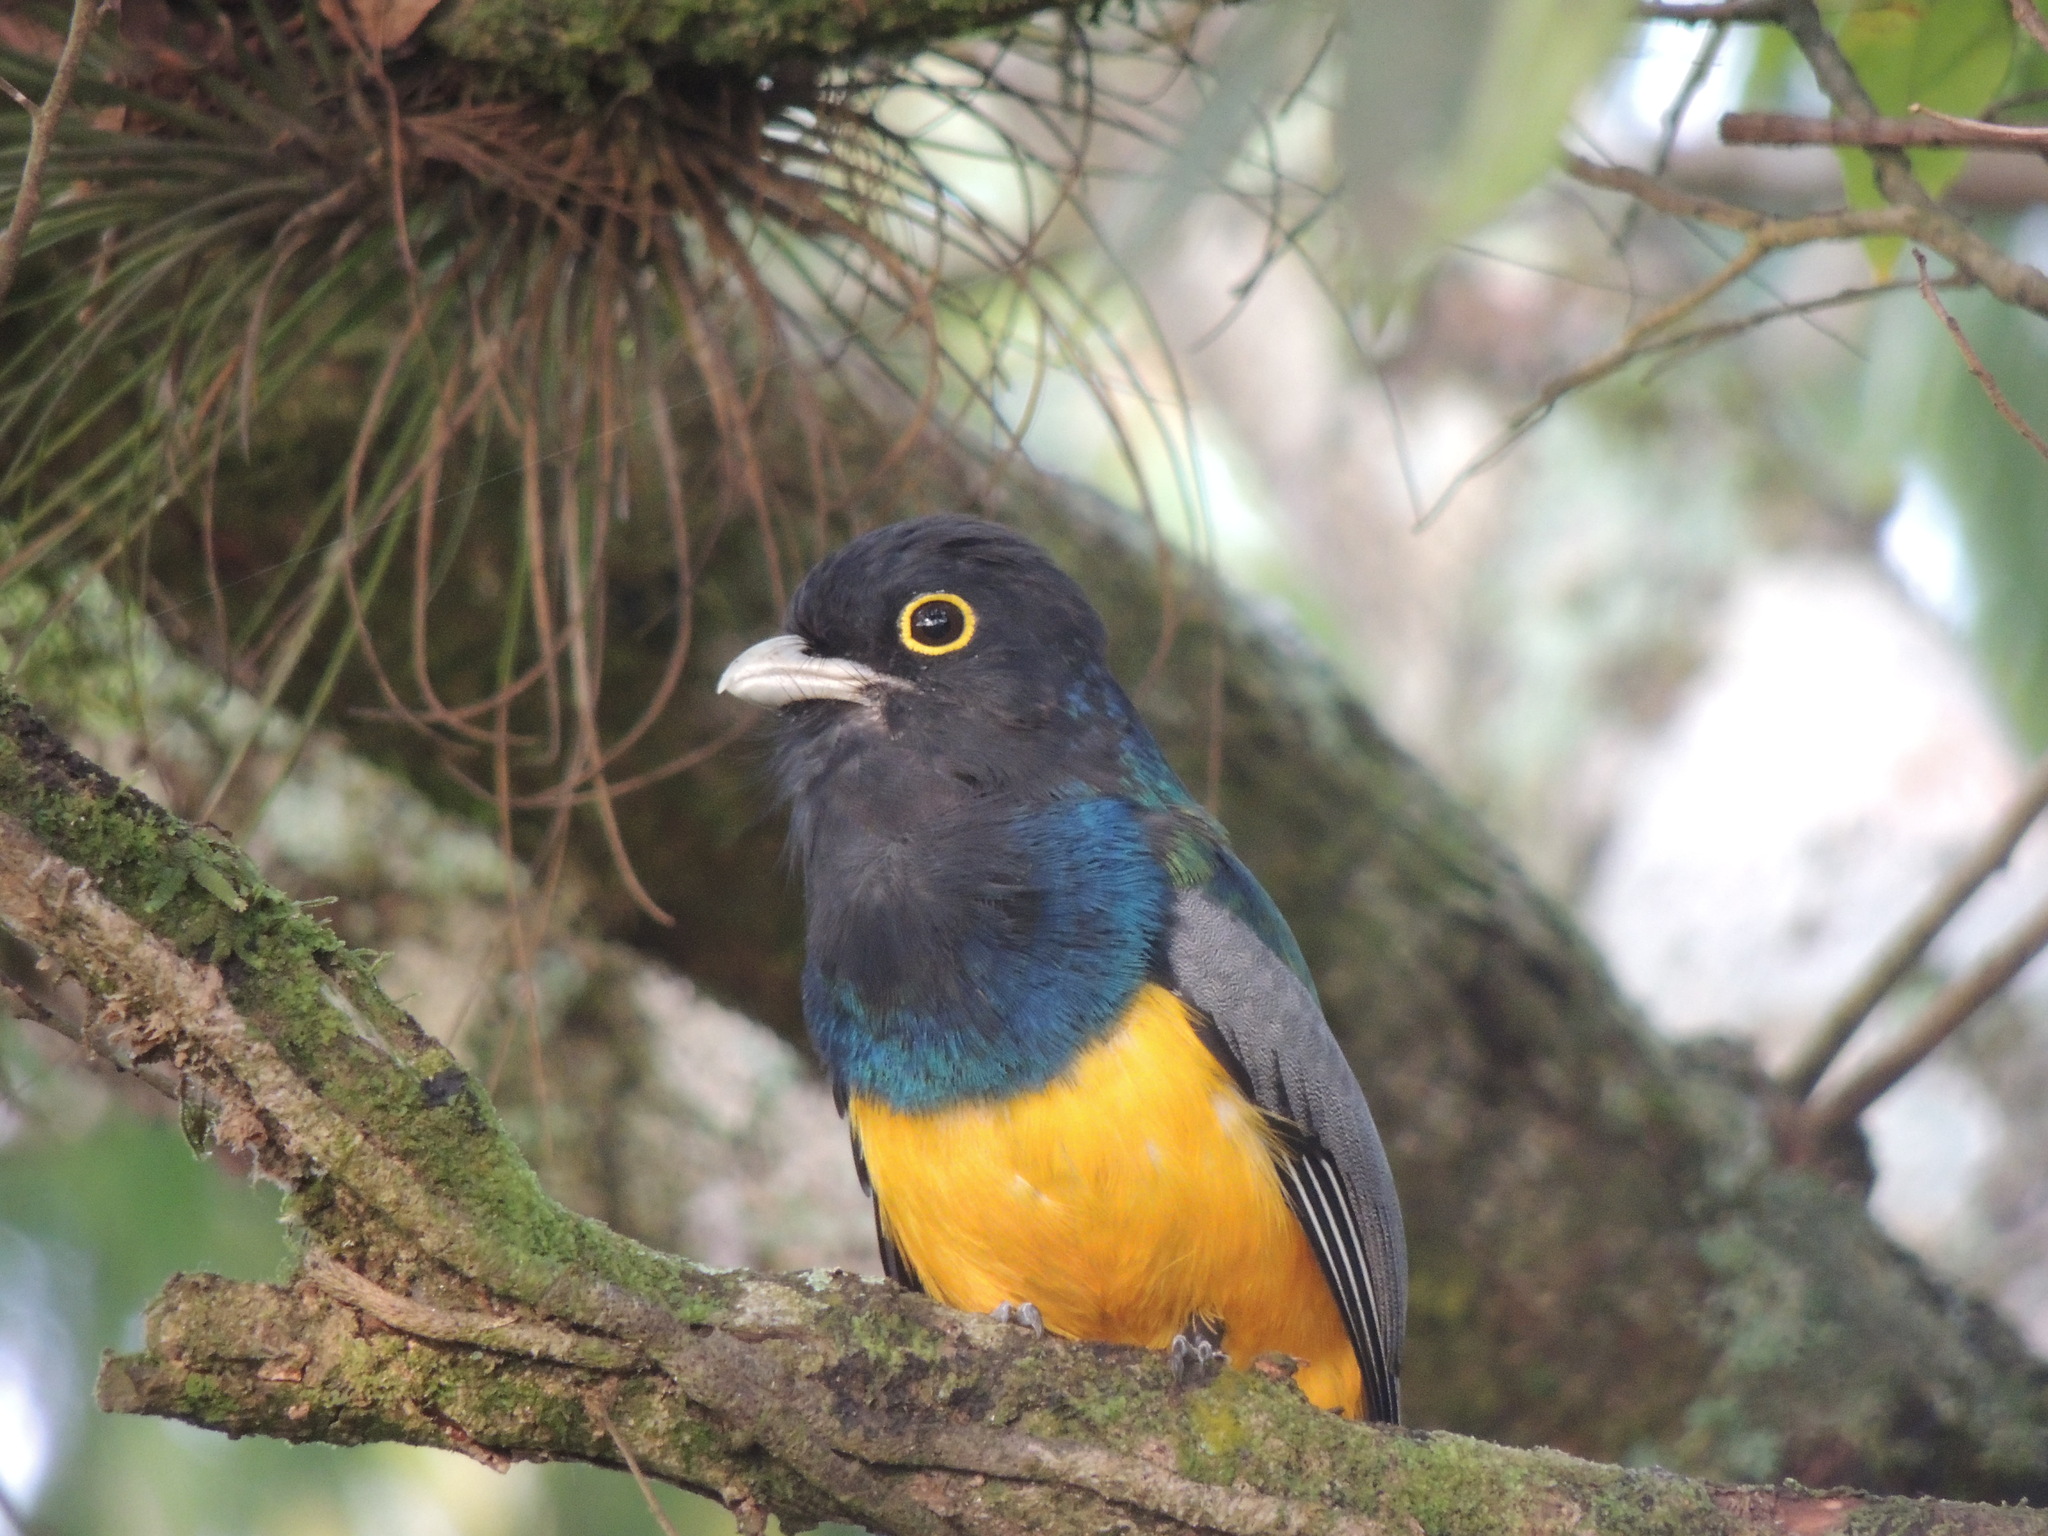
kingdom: Animalia
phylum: Chordata
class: Aves
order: Trogoniformes
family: Trogonidae
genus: Trogon
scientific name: Trogon caligatus
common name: Gartered trogon
